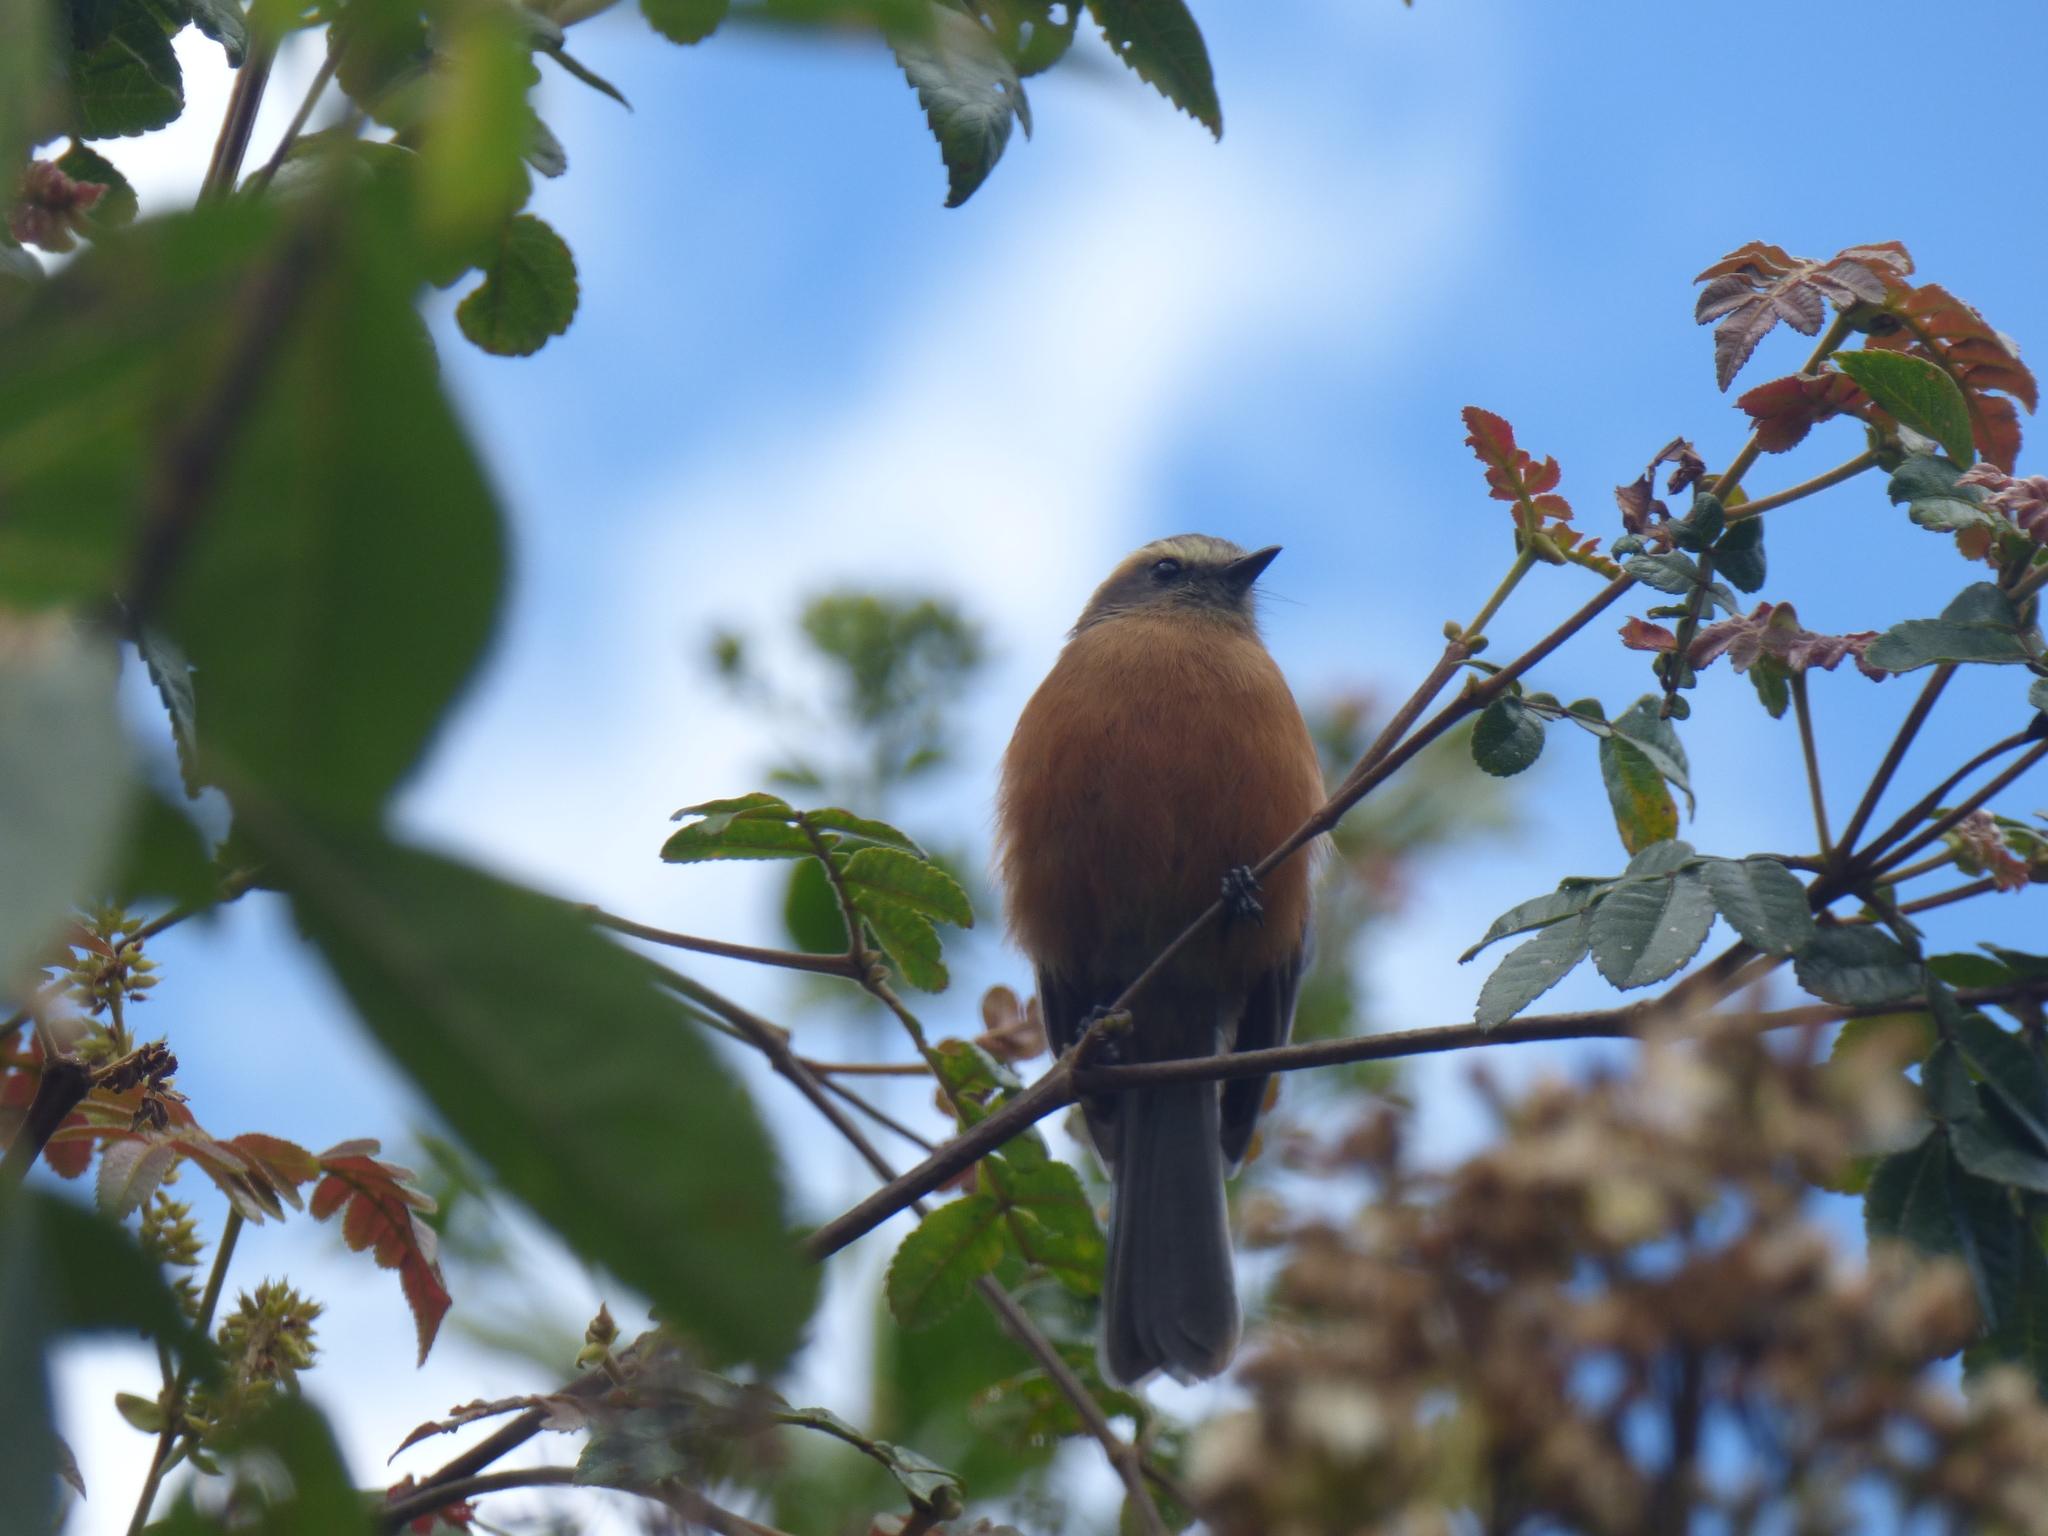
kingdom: Animalia
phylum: Chordata
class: Aves
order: Passeriformes
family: Tyrannidae
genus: Ochthoeca
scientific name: Ochthoeca fumicolor
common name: Brown-backed chat-tyrant
